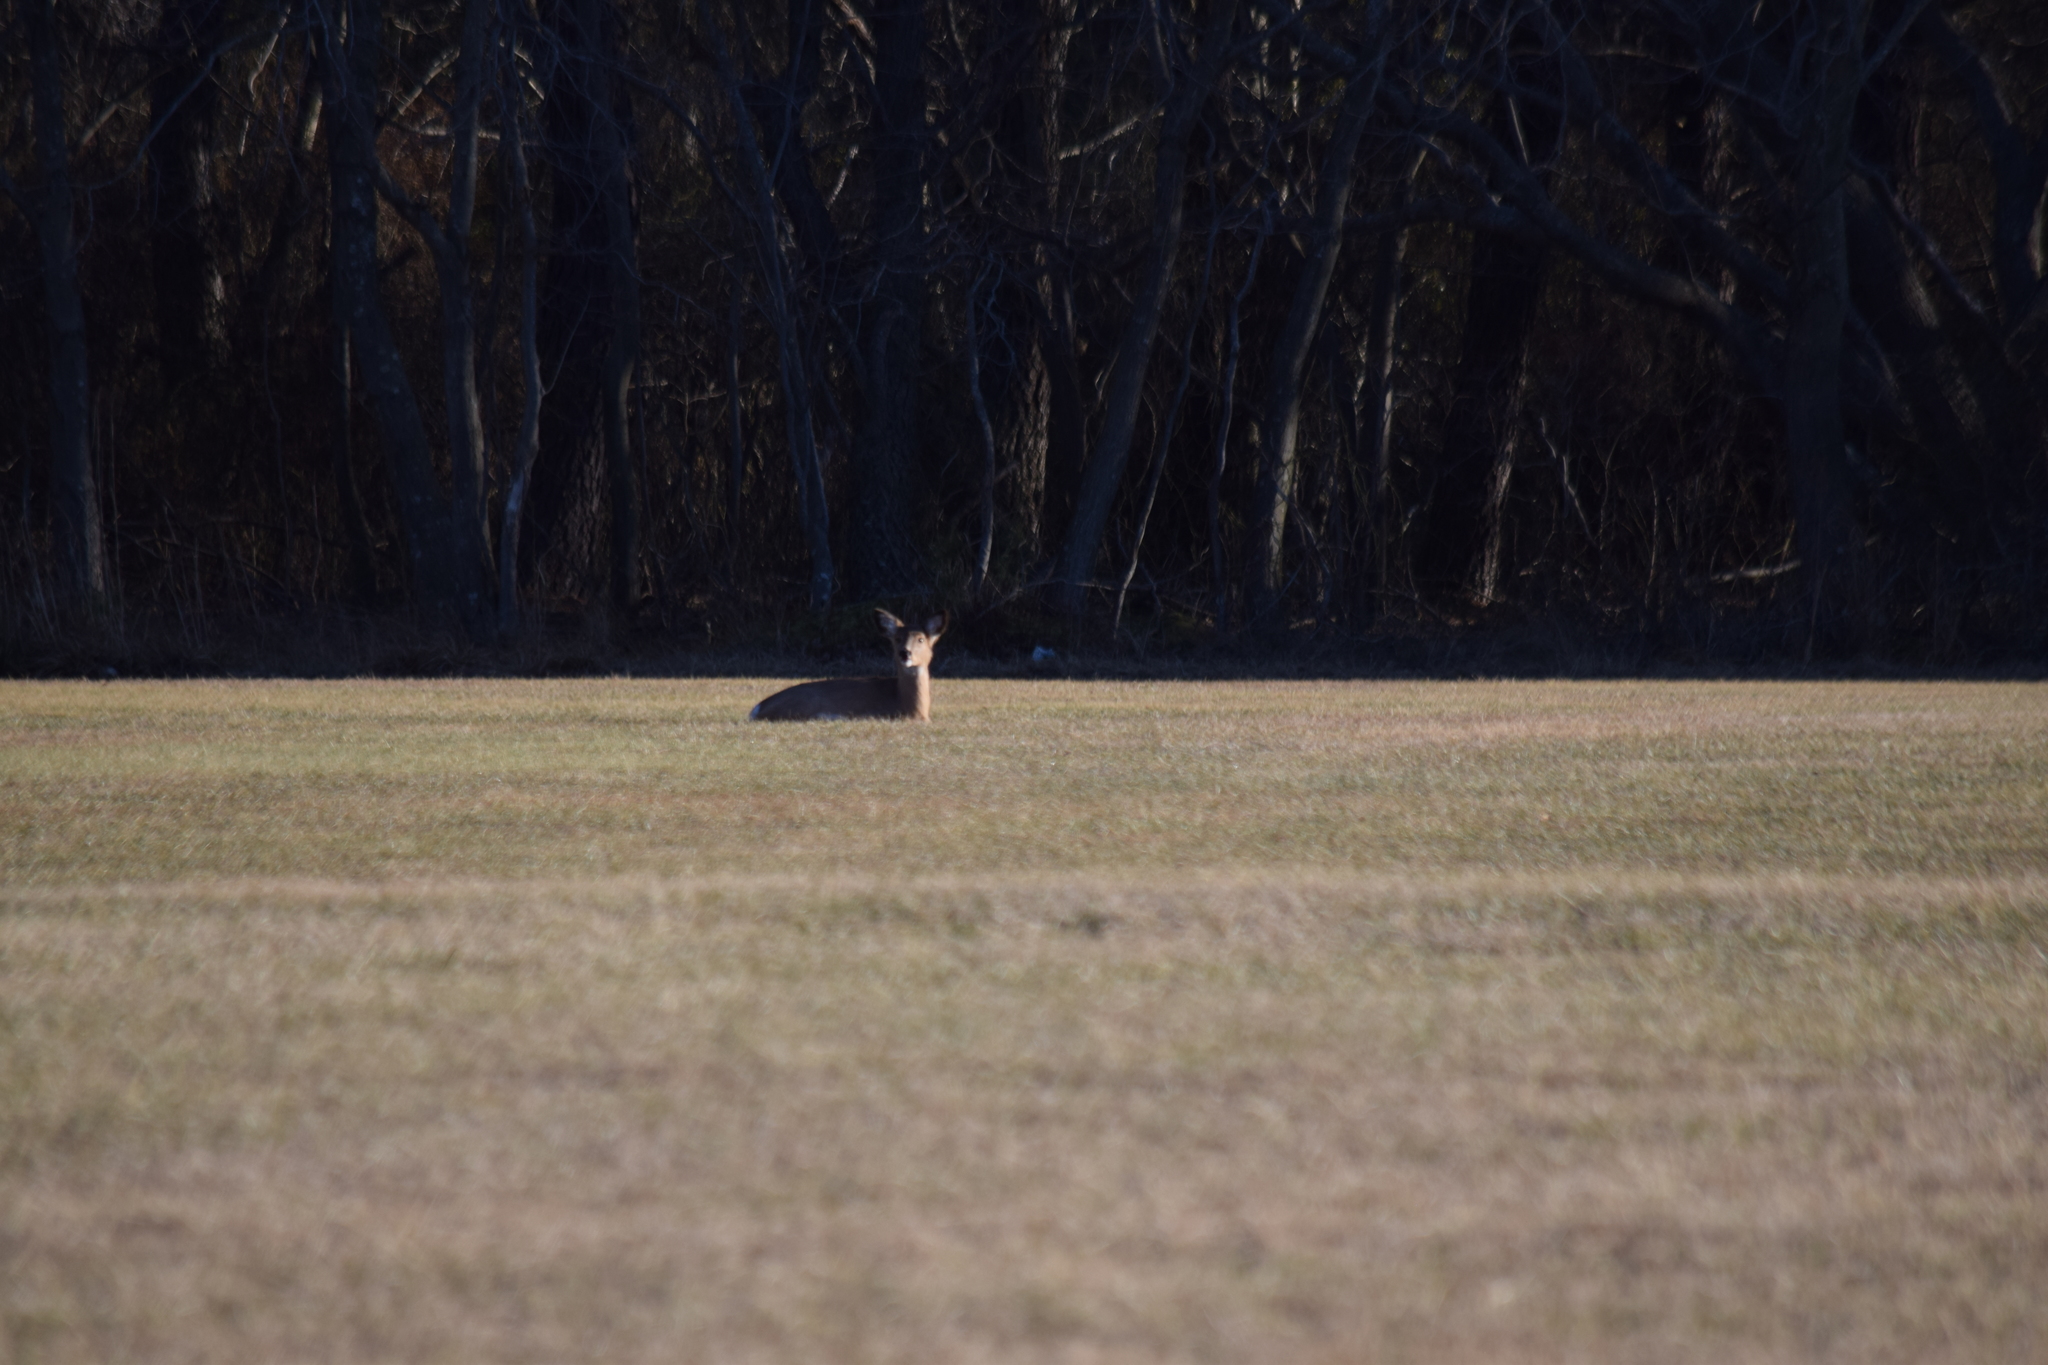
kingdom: Animalia
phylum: Chordata
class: Mammalia
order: Artiodactyla
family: Cervidae
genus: Odocoileus
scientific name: Odocoileus virginianus
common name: White-tailed deer
